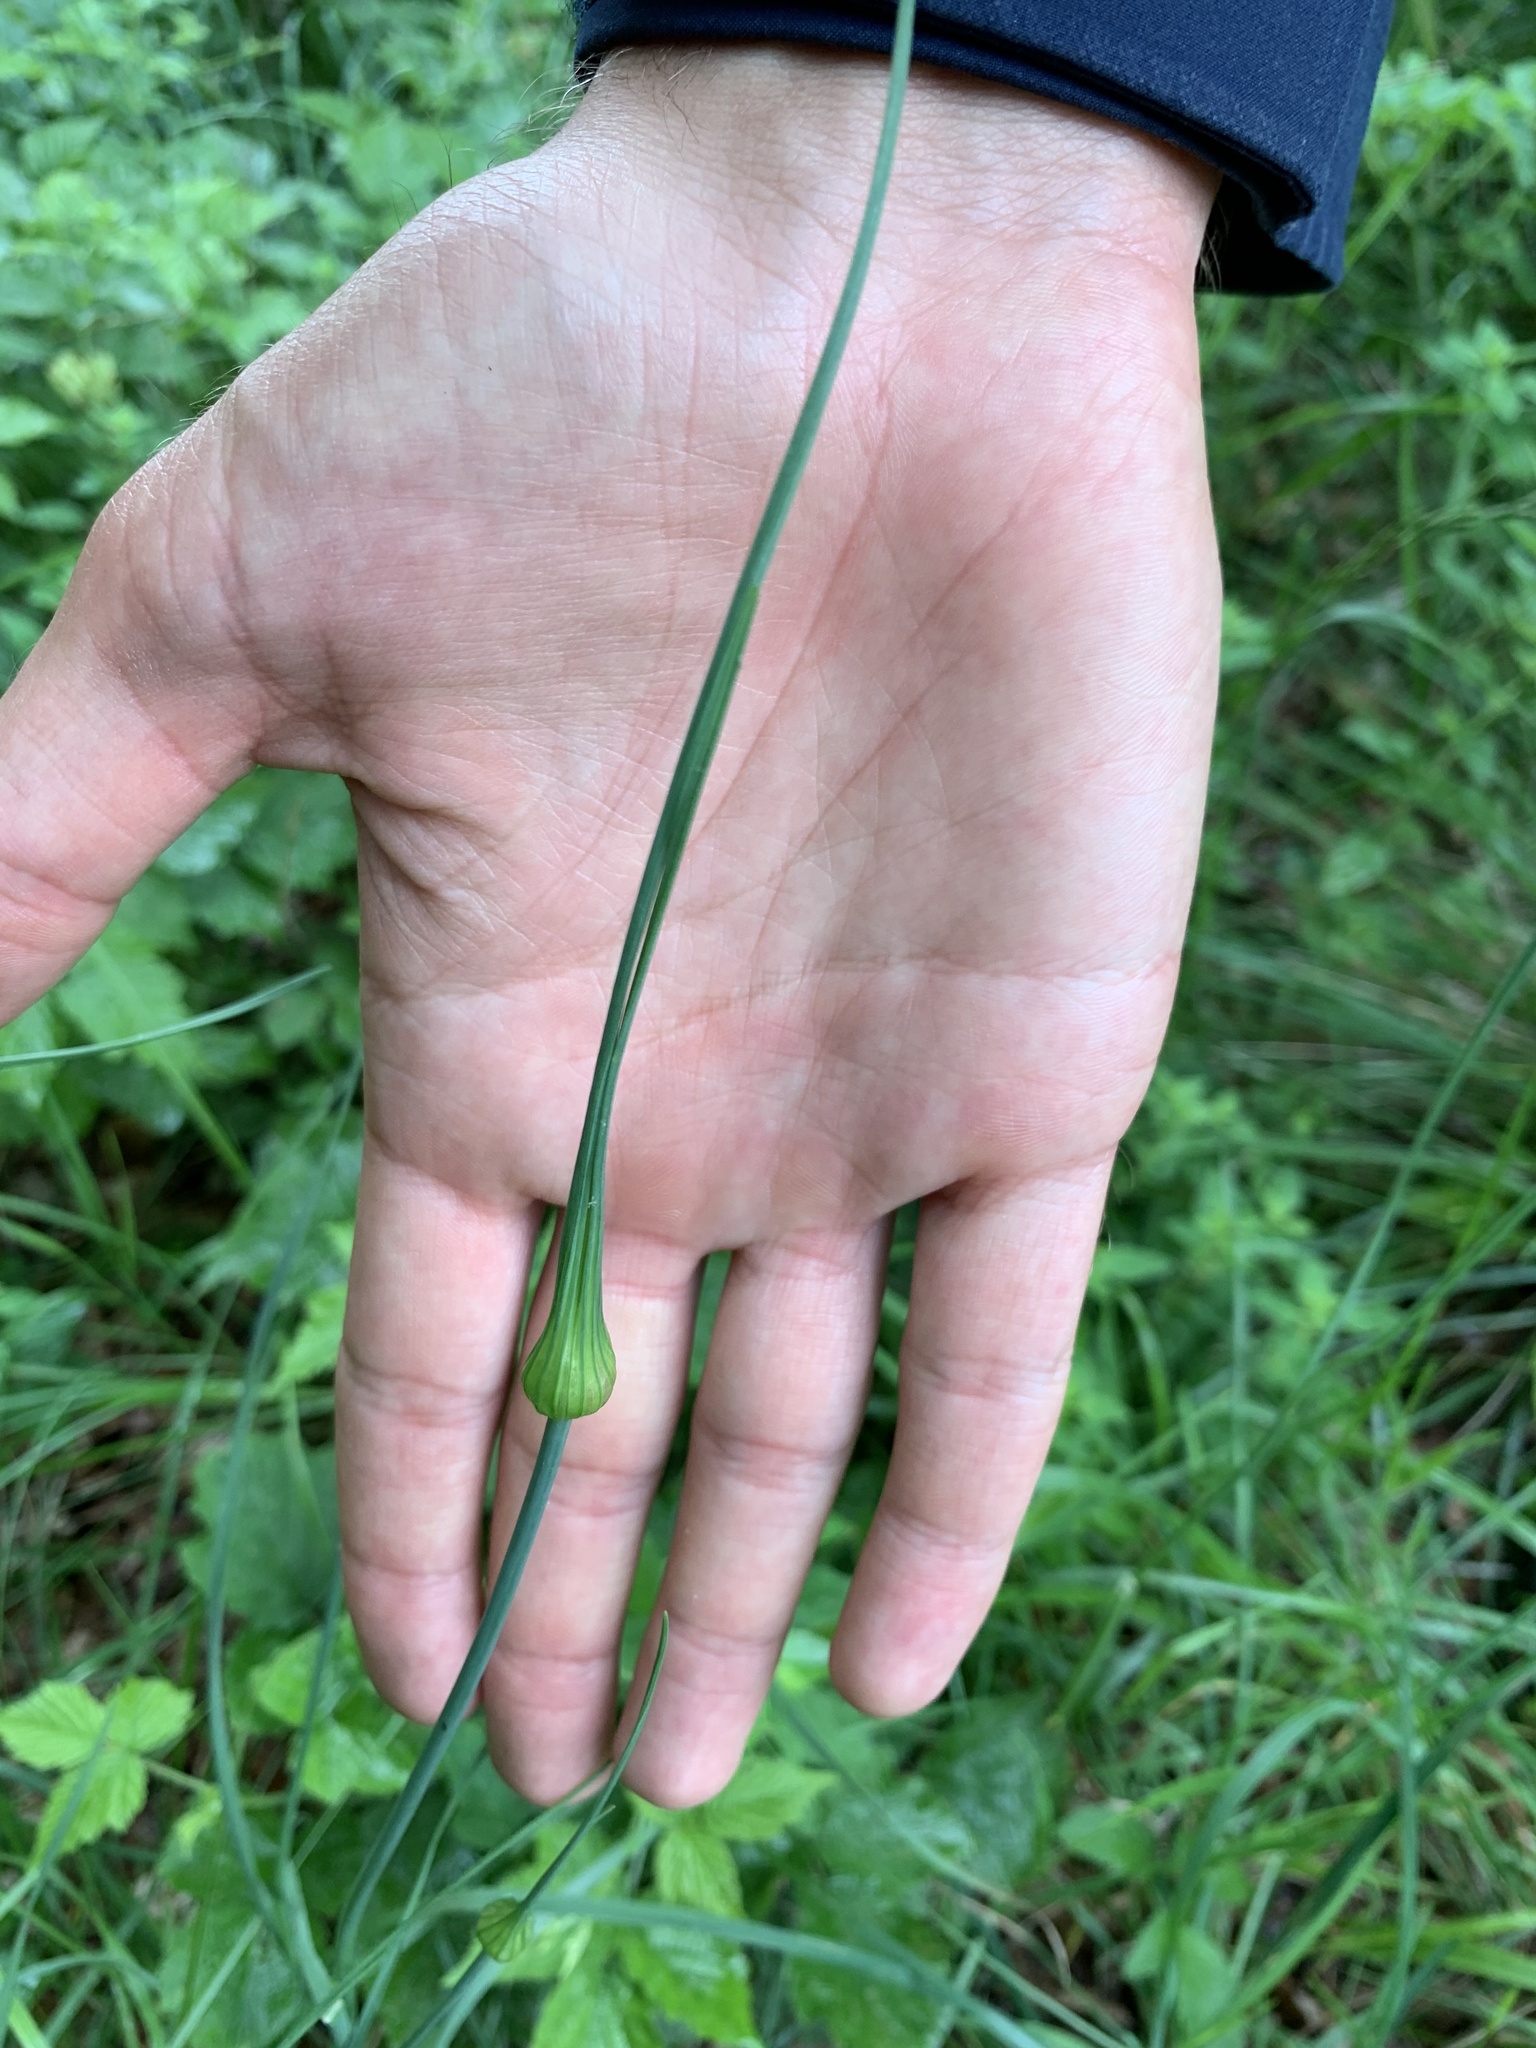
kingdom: Plantae
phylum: Tracheophyta
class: Liliopsida
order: Asparagales
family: Amaryllidaceae
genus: Allium
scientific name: Allium oleraceum
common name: Field garlic
